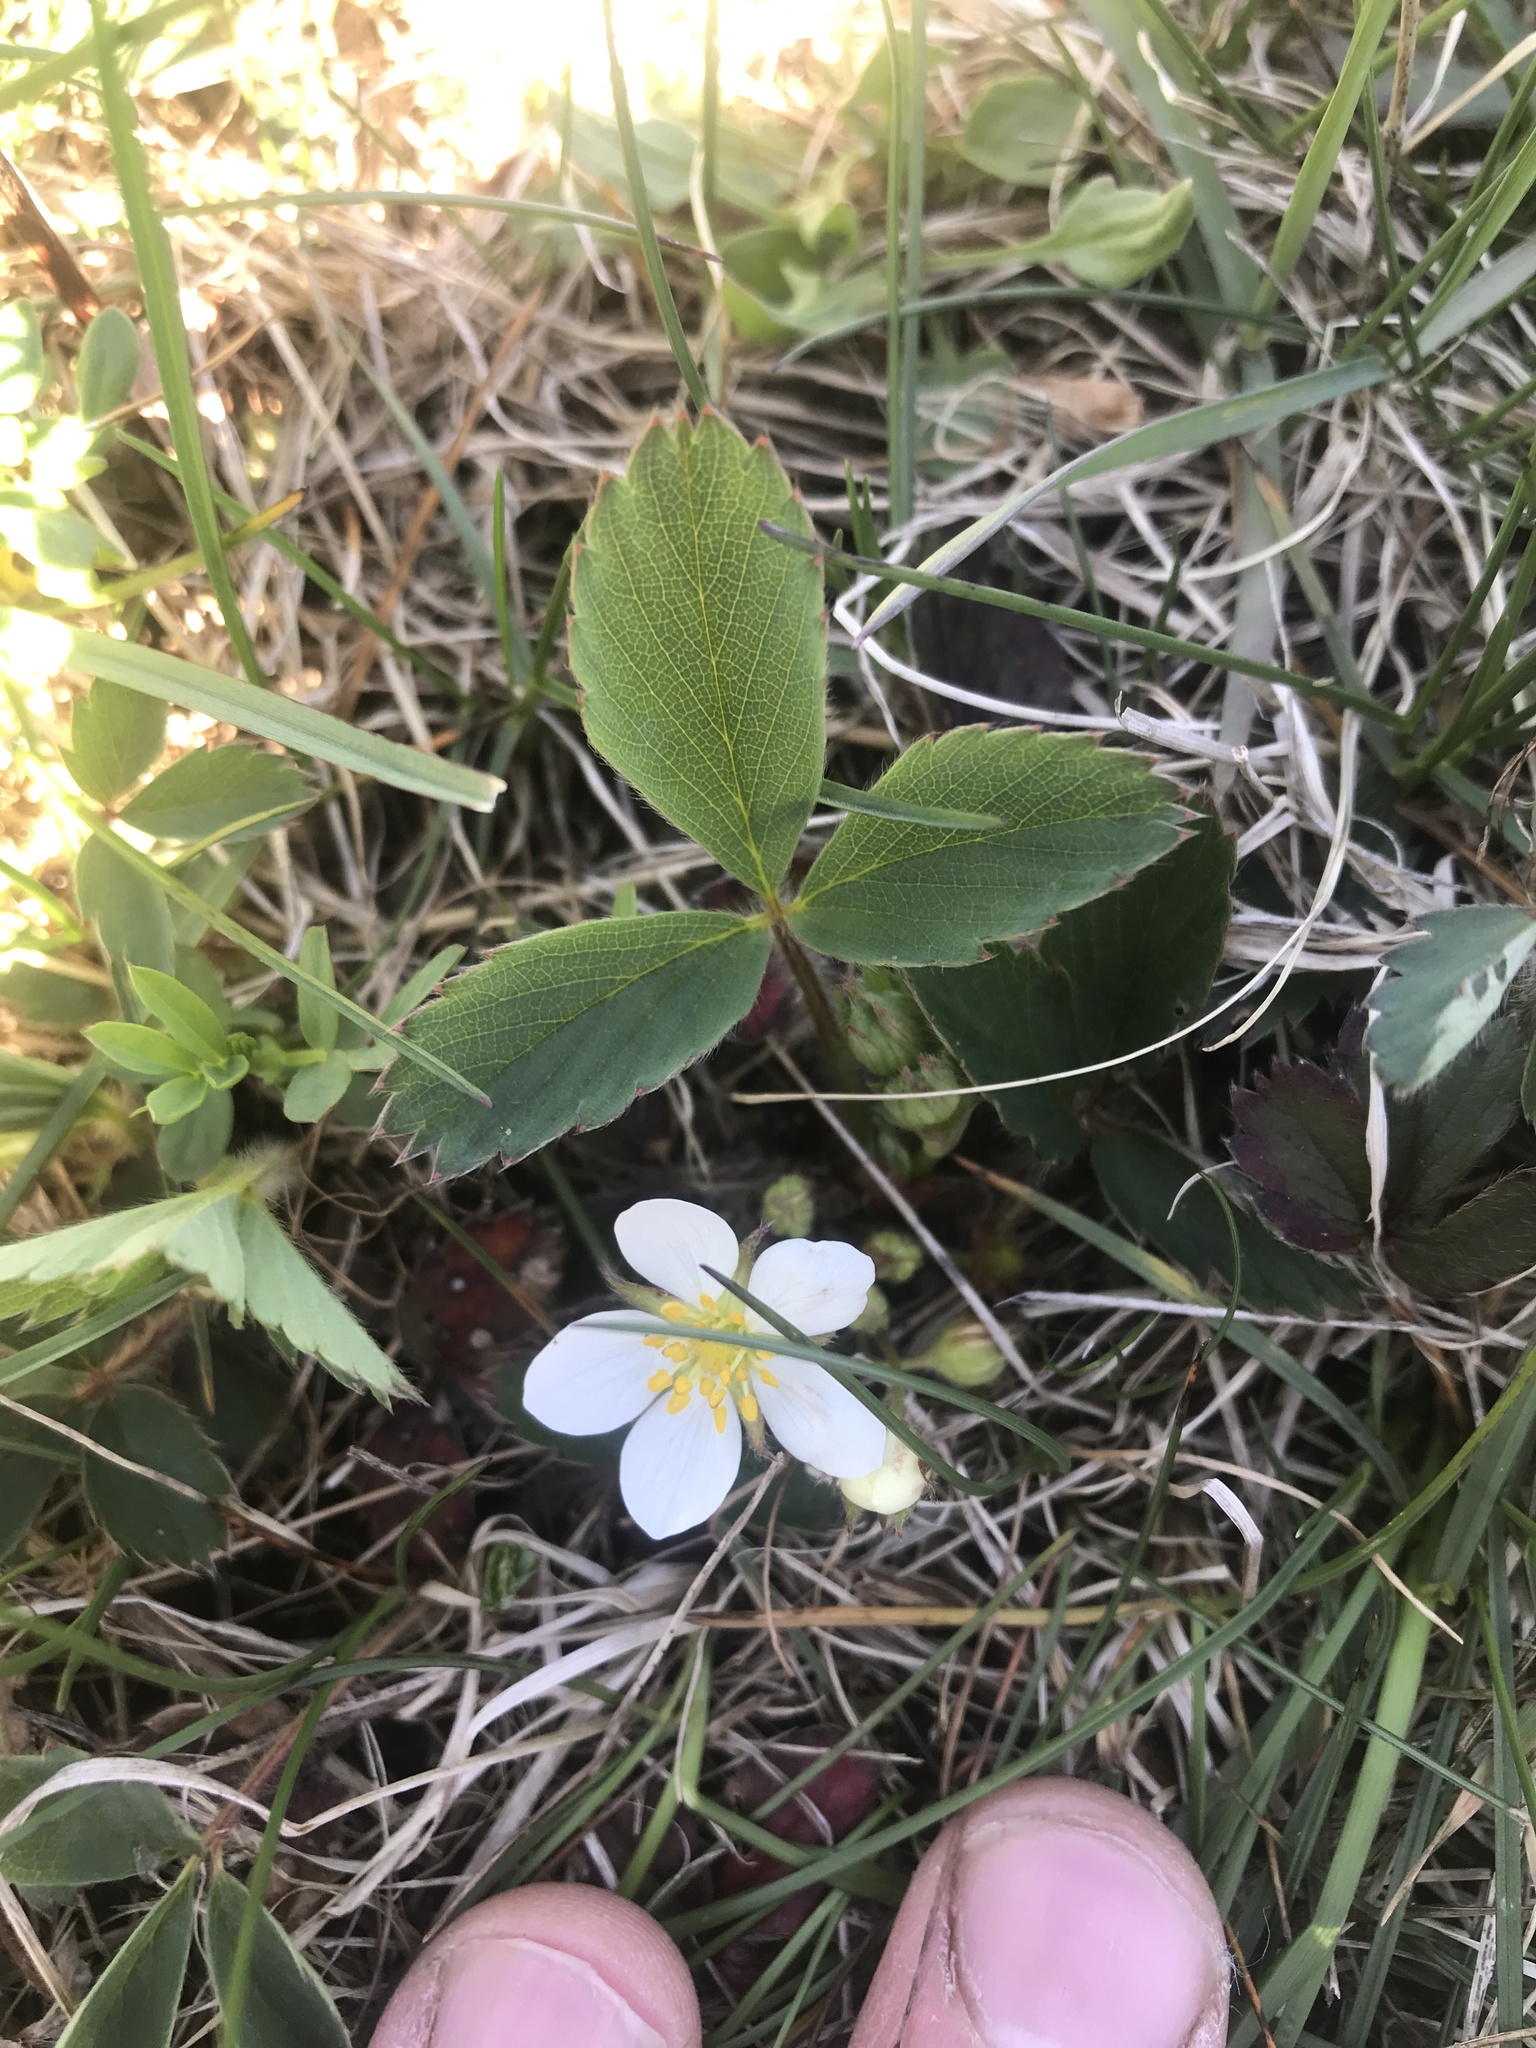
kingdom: Plantae
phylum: Tracheophyta
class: Magnoliopsida
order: Rosales
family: Rosaceae
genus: Fragaria
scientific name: Fragaria virginiana
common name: Thickleaved wild strawberry
